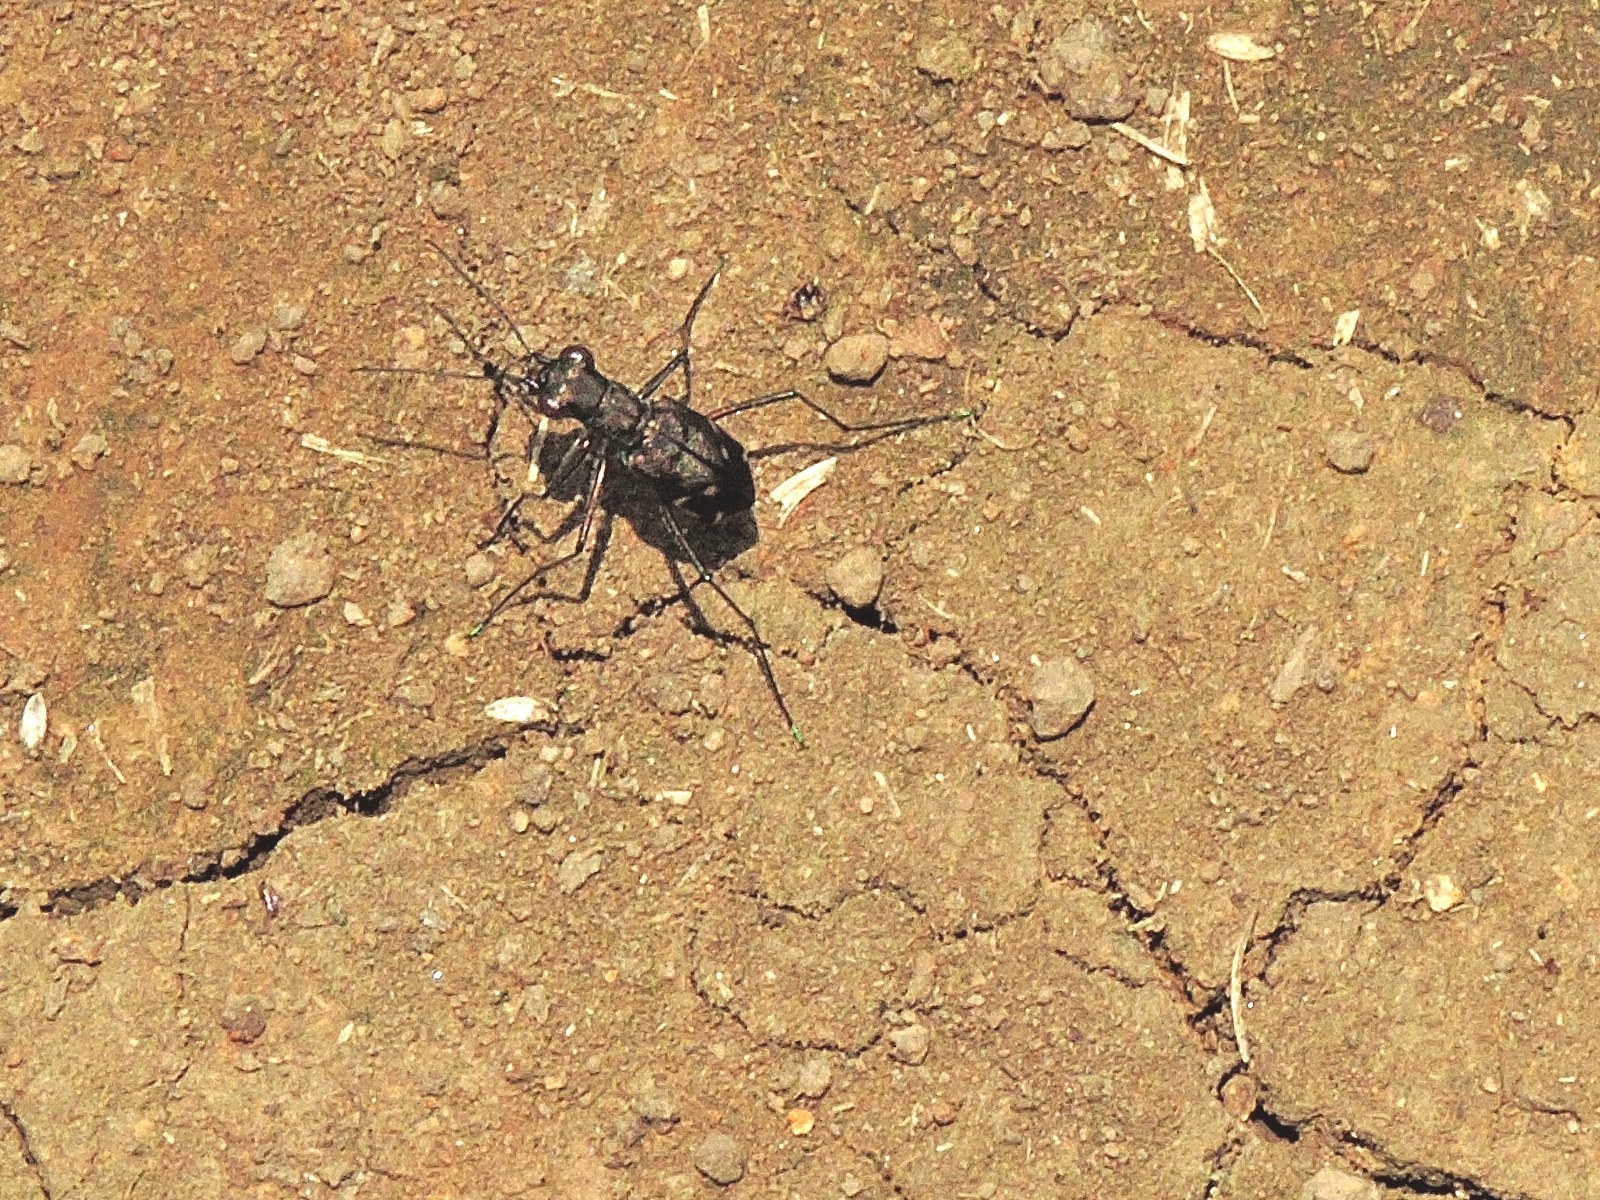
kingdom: Animalia
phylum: Arthropoda
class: Insecta
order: Coleoptera
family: Carabidae
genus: Cylindera
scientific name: Cylindera kaleea
